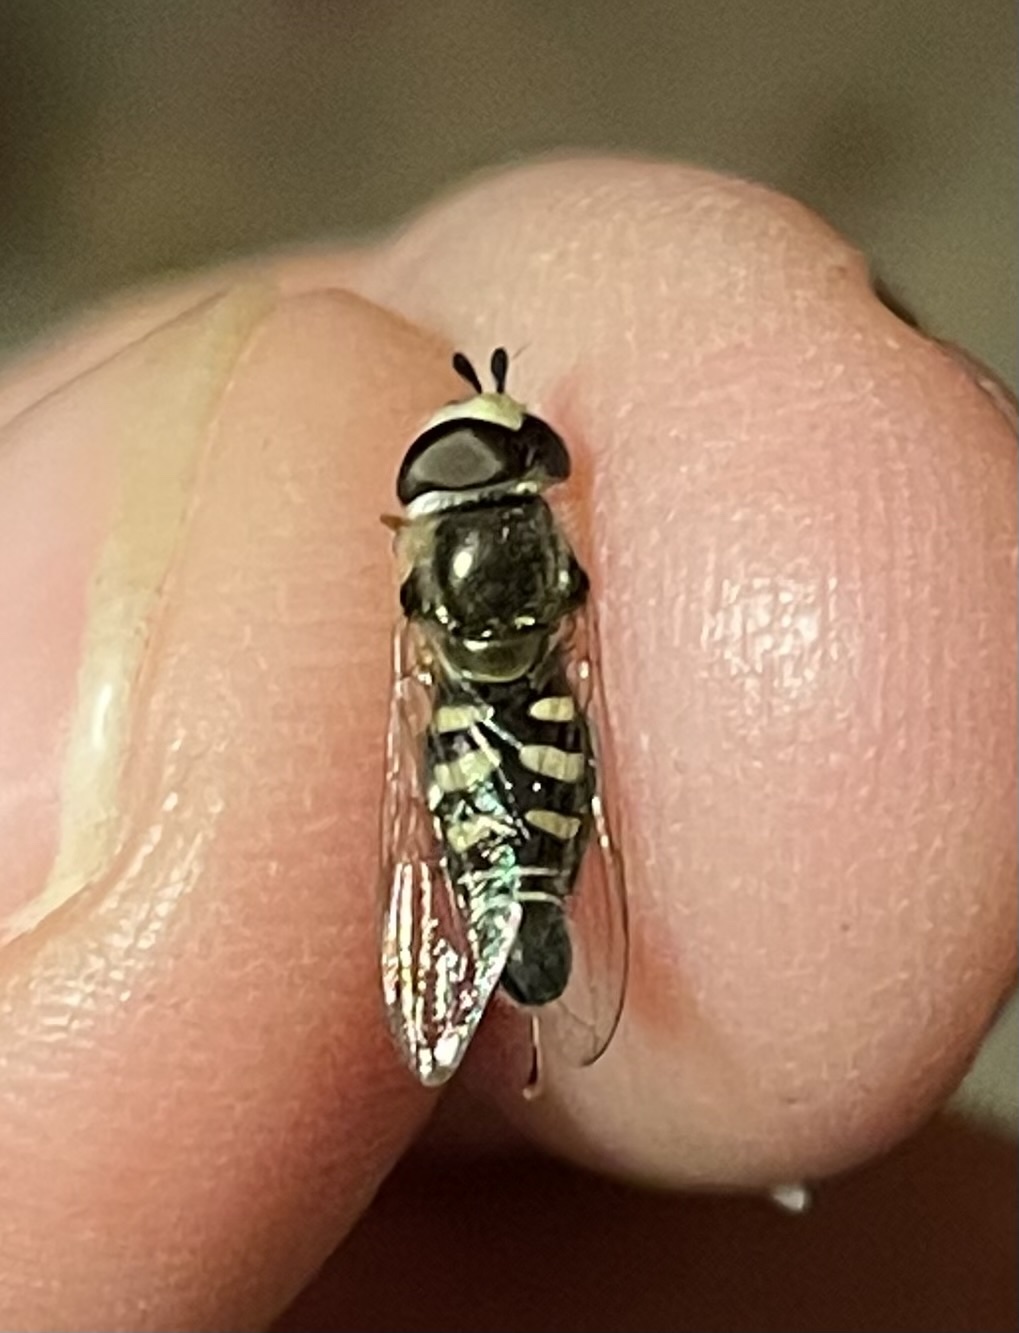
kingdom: Animalia
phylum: Arthropoda
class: Insecta
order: Diptera
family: Syrphidae
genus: Eupeodes
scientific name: Eupeodes volucris
